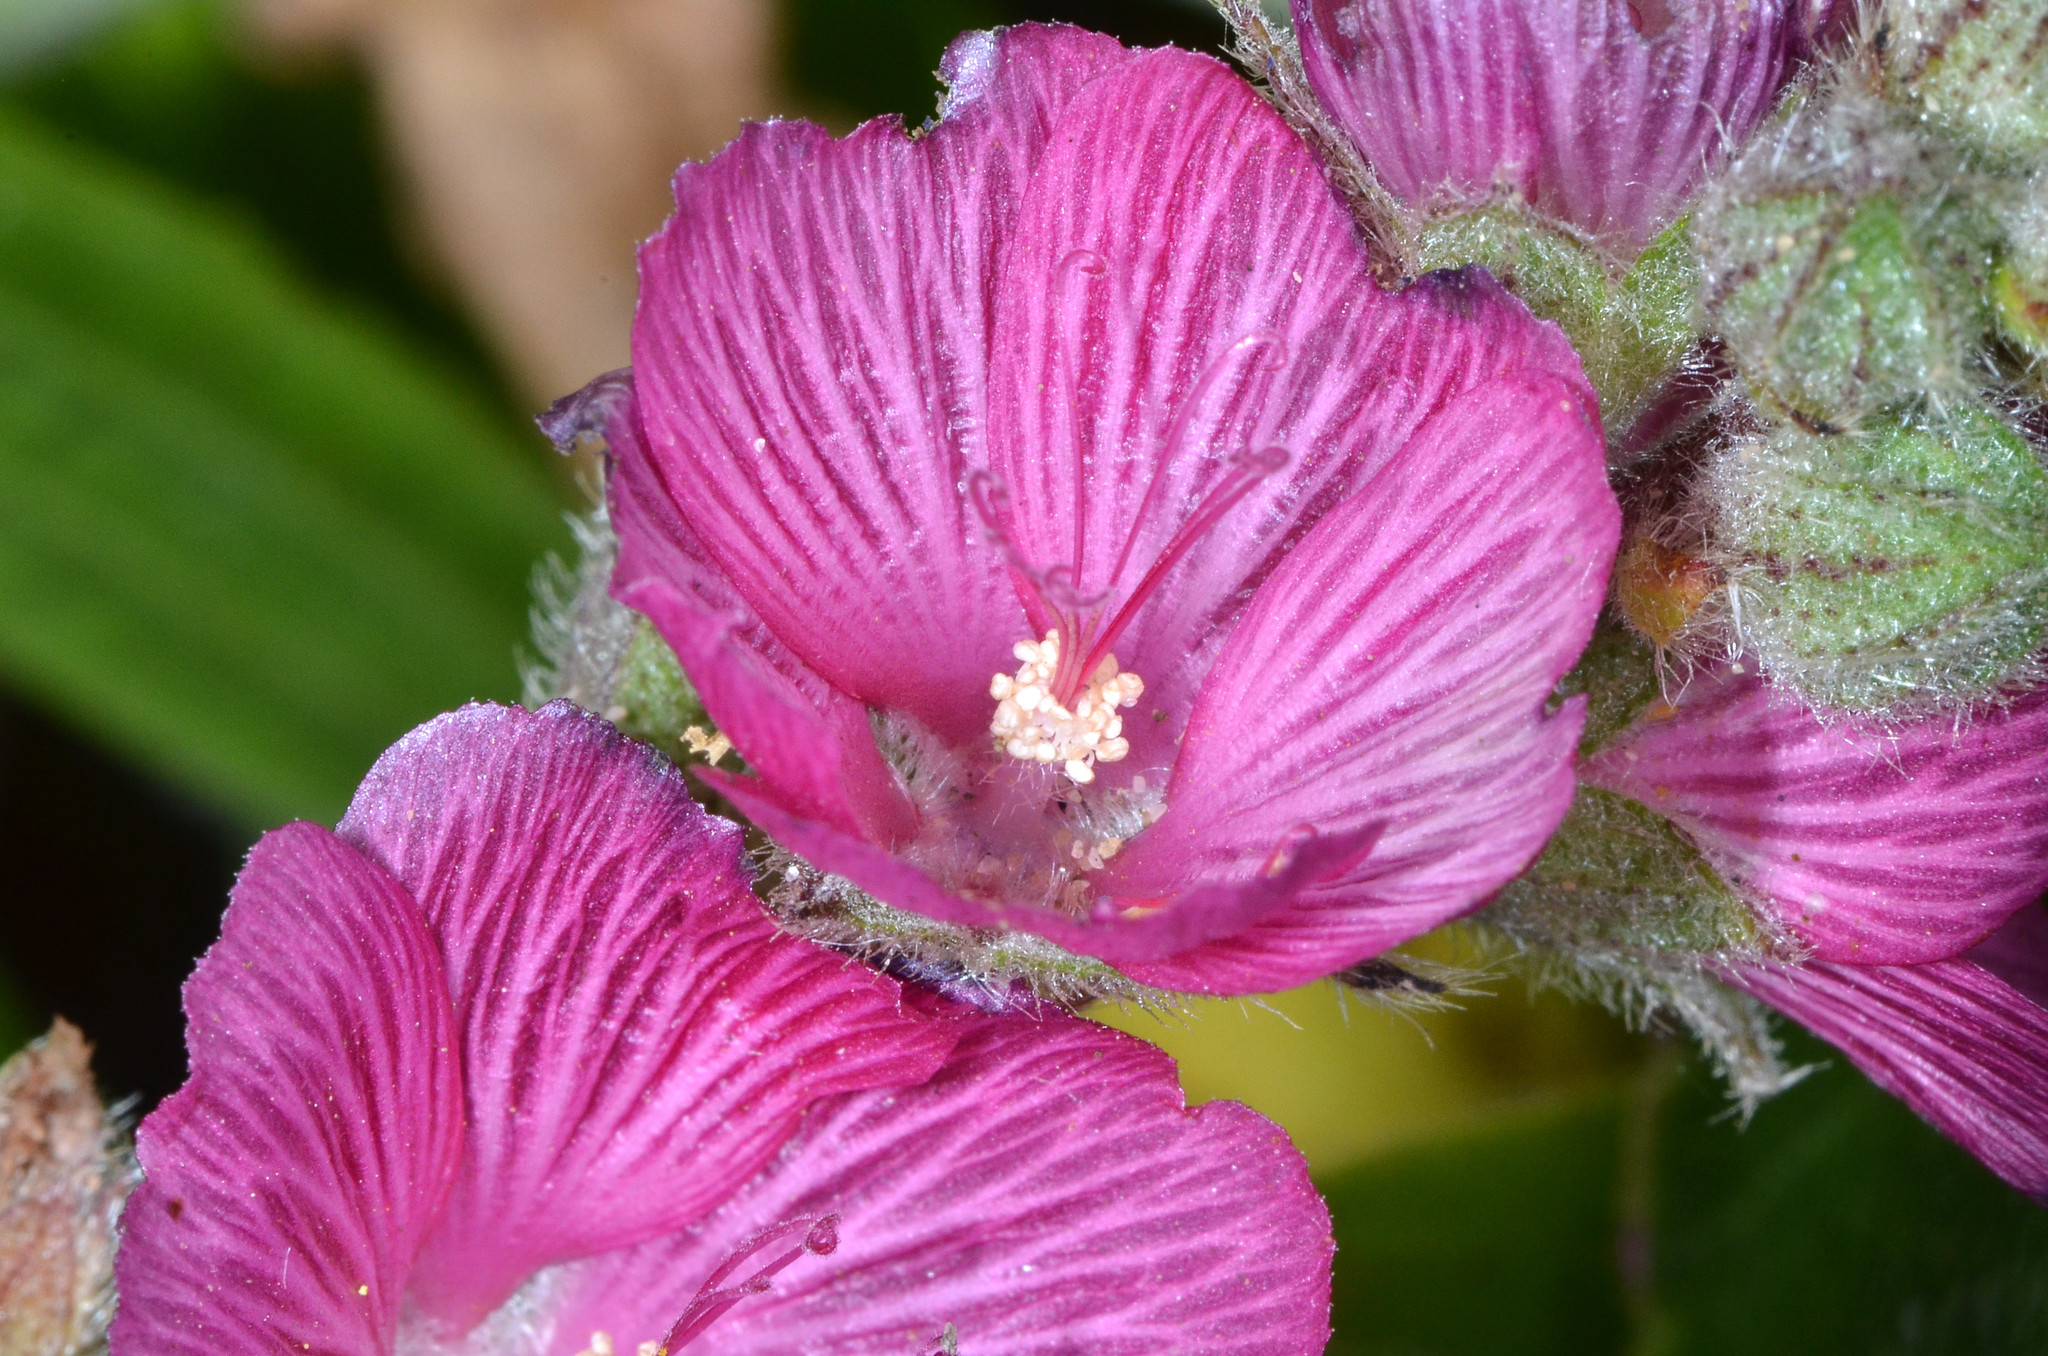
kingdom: Plantae
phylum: Tracheophyta
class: Magnoliopsida
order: Malvales
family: Malvaceae
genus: Sidalcea
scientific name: Sidalcea malviflora
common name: Greek mallow
